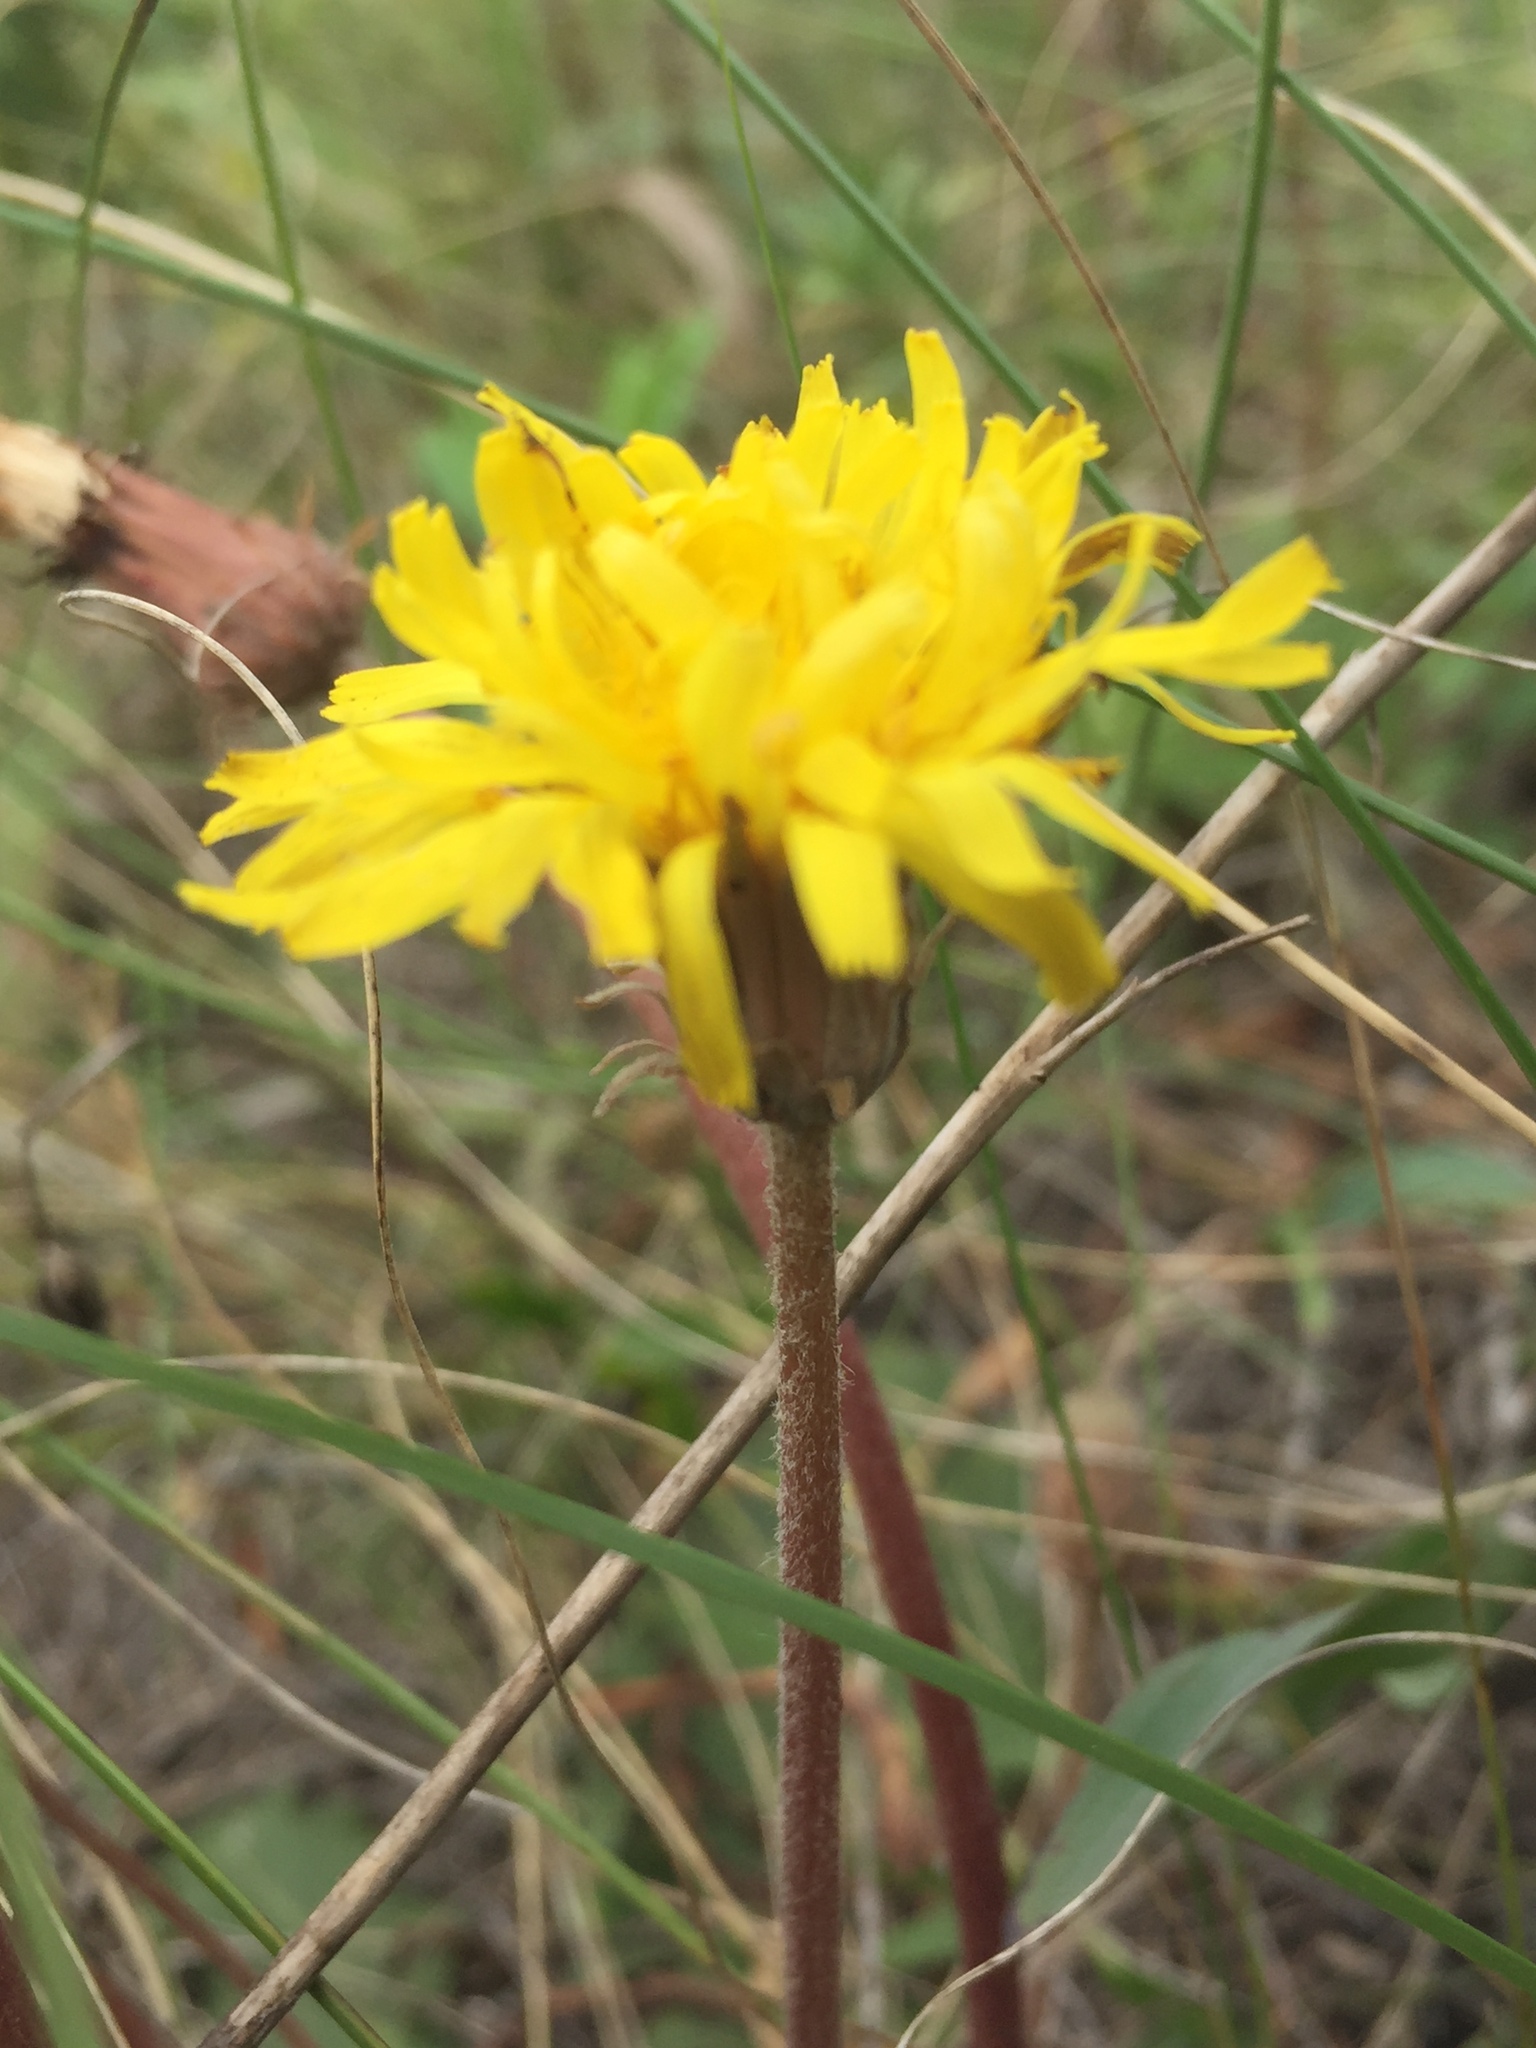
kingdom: Plantae
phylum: Tracheophyta
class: Magnoliopsida
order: Asterales
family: Asteraceae
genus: Taraxacum
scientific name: Taraxacum serotinum
